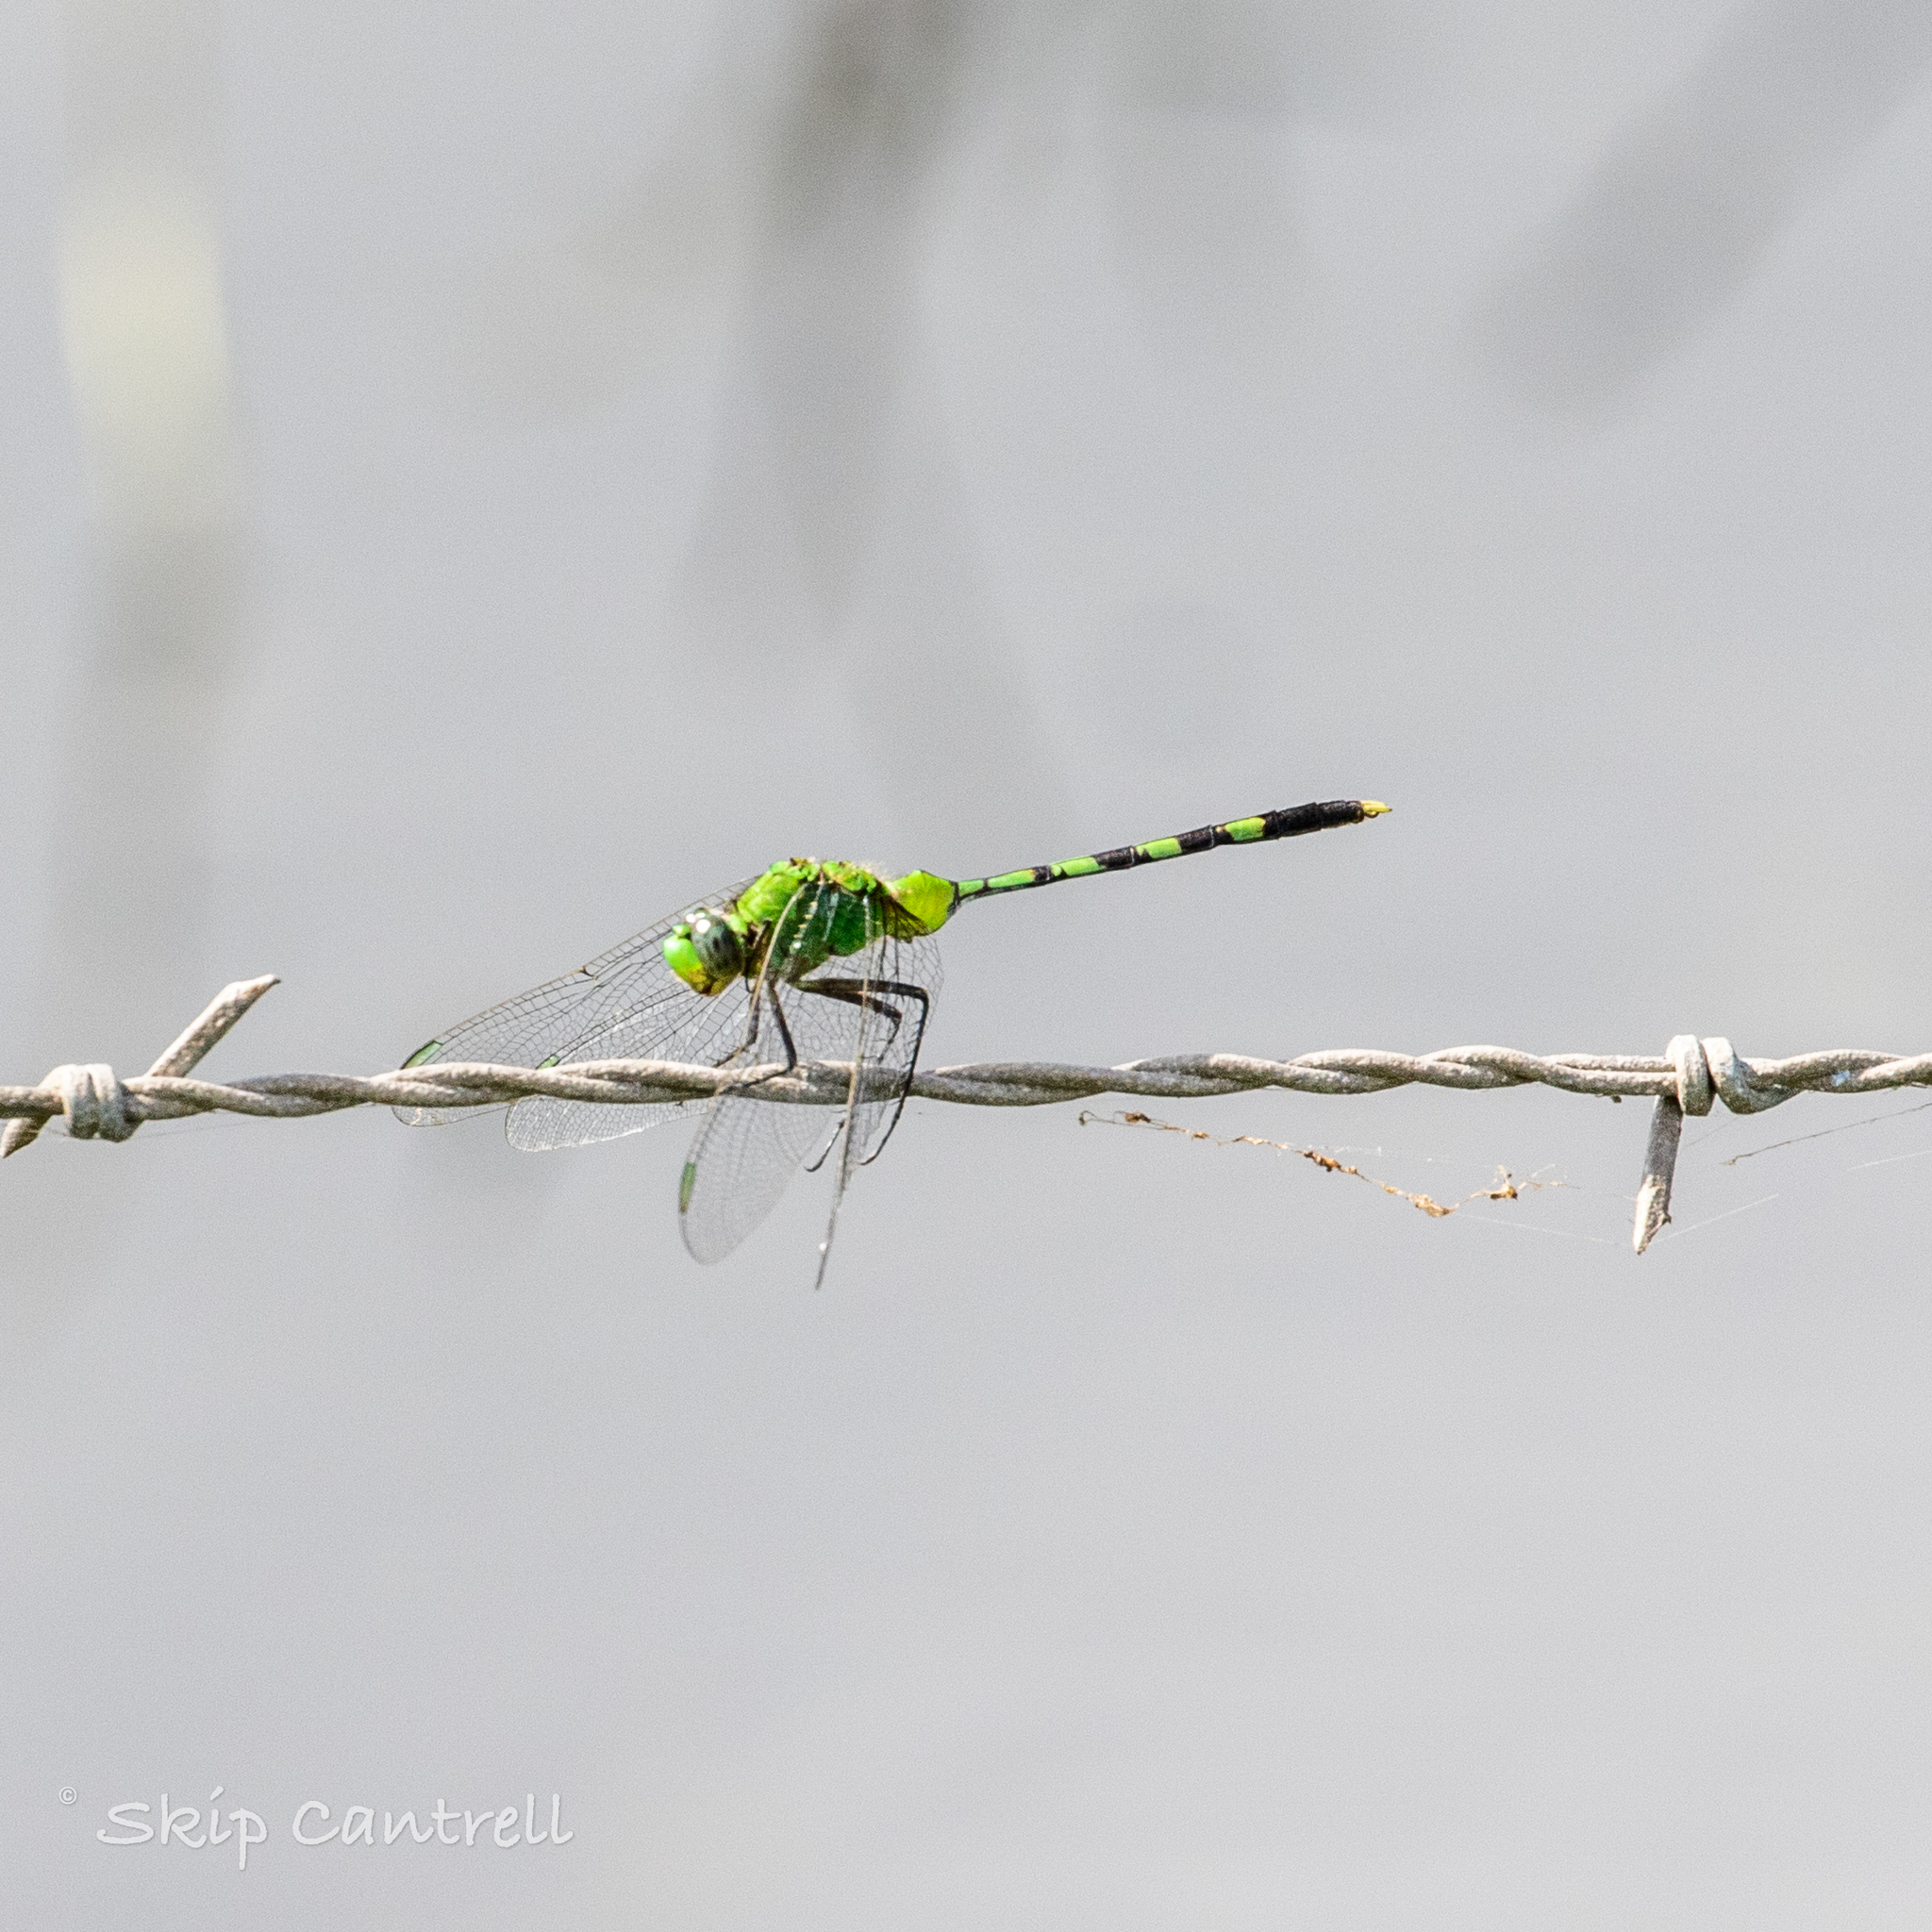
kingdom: Animalia
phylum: Arthropoda
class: Insecta
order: Odonata
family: Libellulidae
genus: Erythemis
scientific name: Erythemis vesiculosa
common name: Great pondhawk
